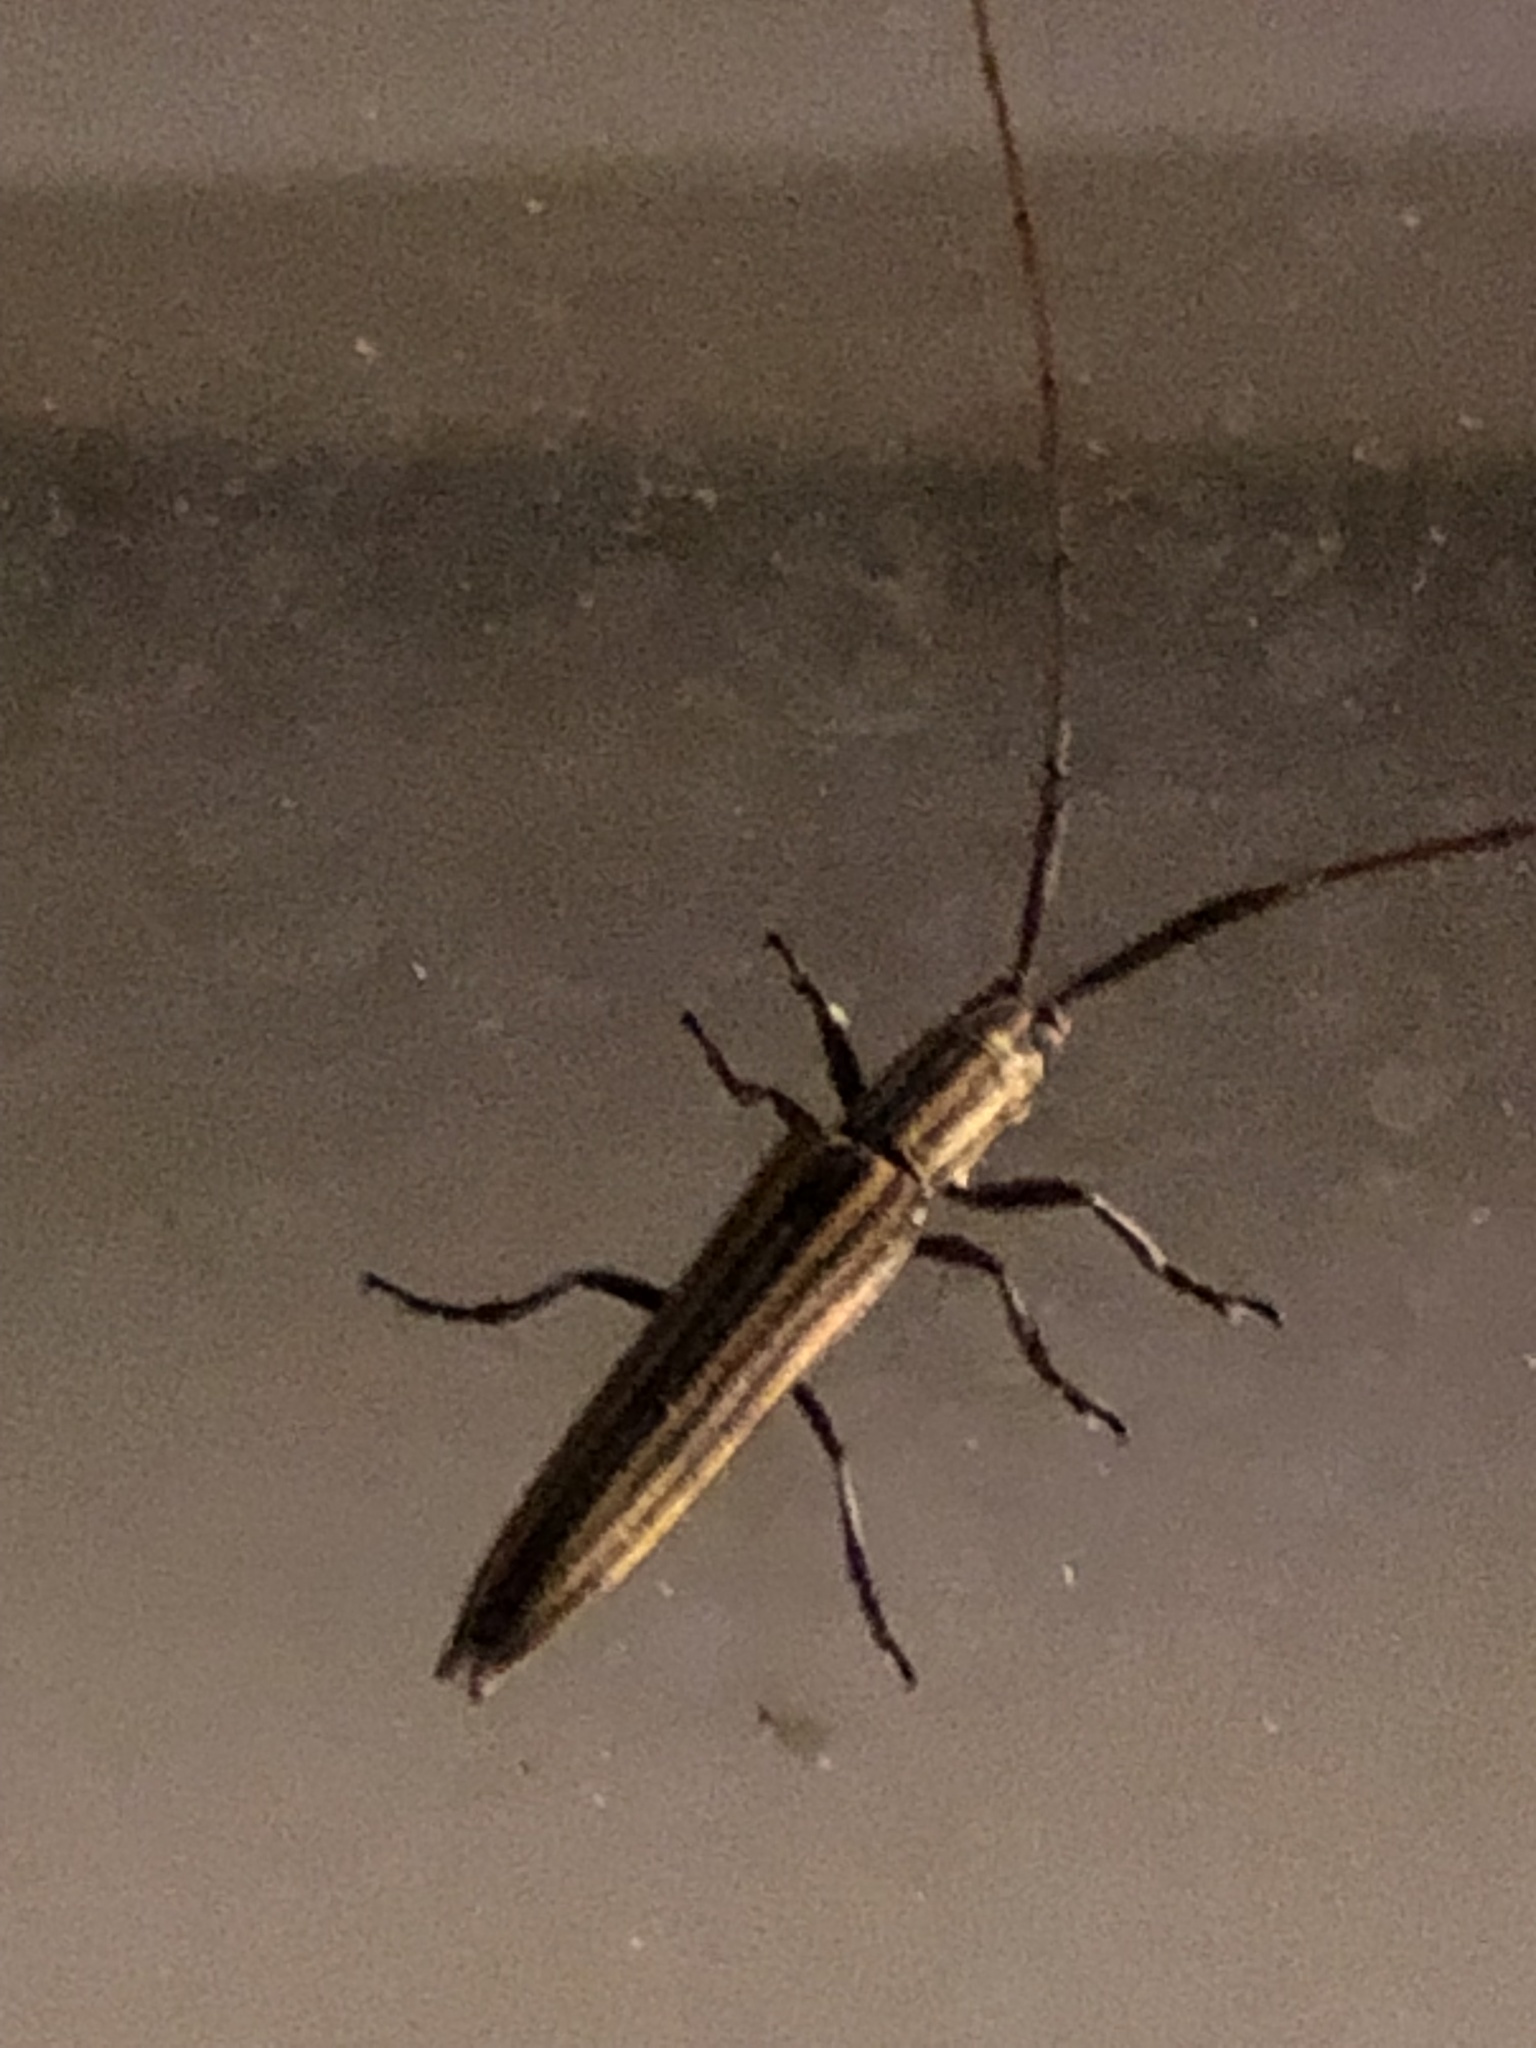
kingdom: Animalia
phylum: Arthropoda
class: Insecta
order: Coleoptera
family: Cerambycidae
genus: Hippopsis
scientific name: Hippopsis
